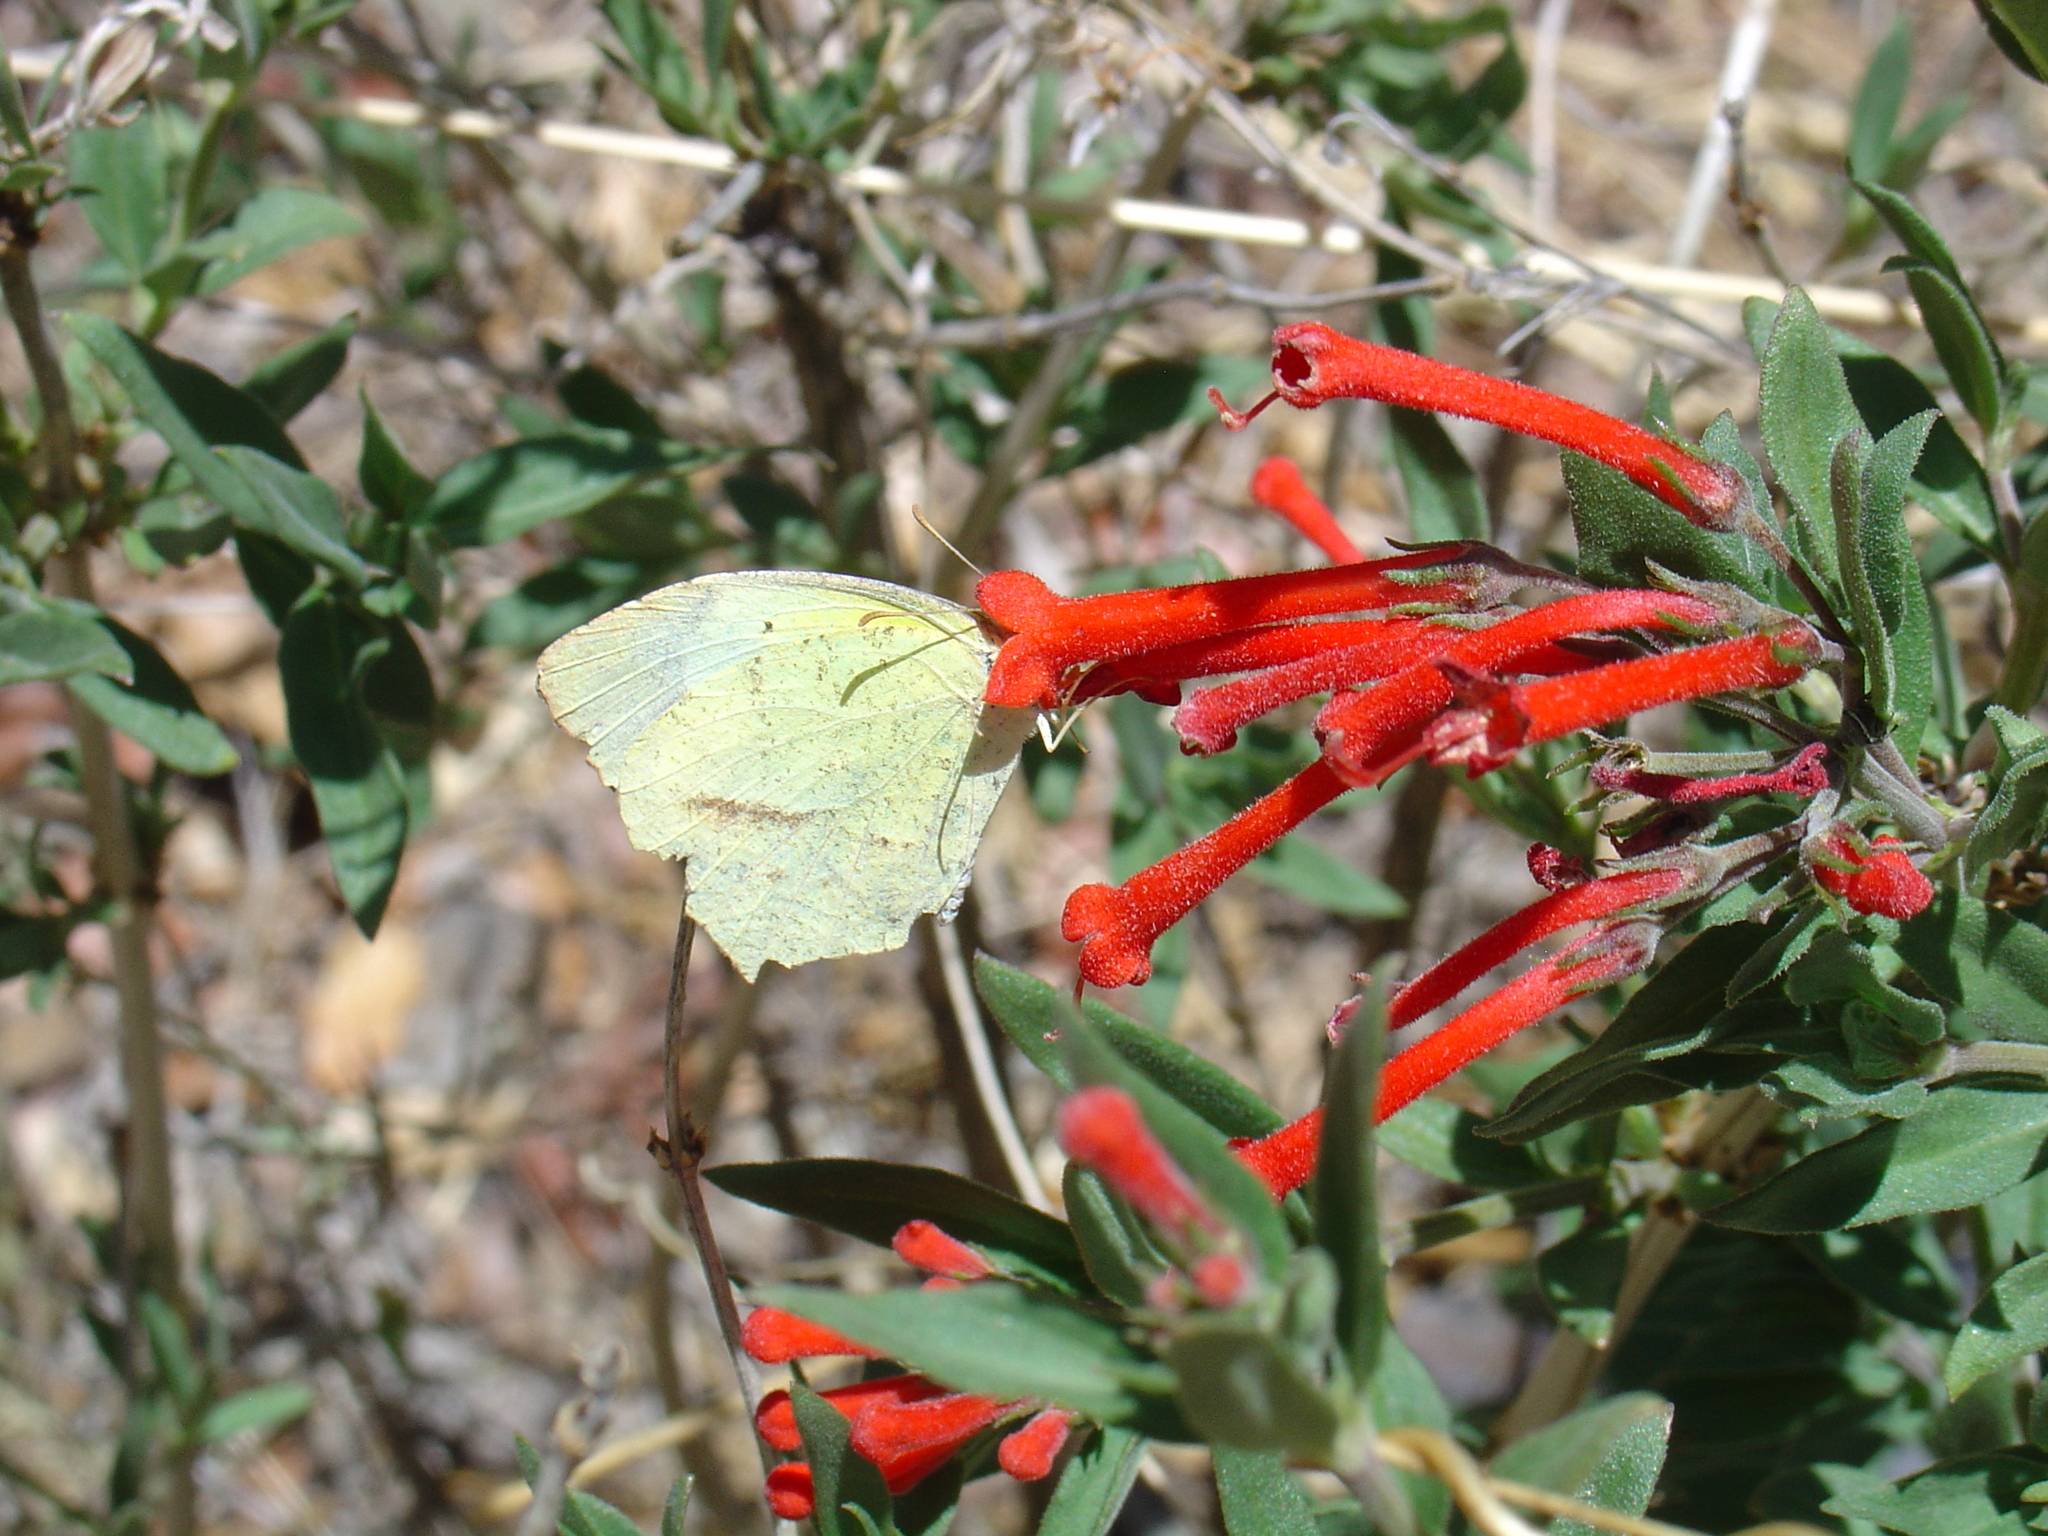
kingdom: Plantae
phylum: Tracheophyta
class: Magnoliopsida
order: Gentianales
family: Rubiaceae
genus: Bouvardia
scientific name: Bouvardia ternifolia
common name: Scarlet bouvardia
